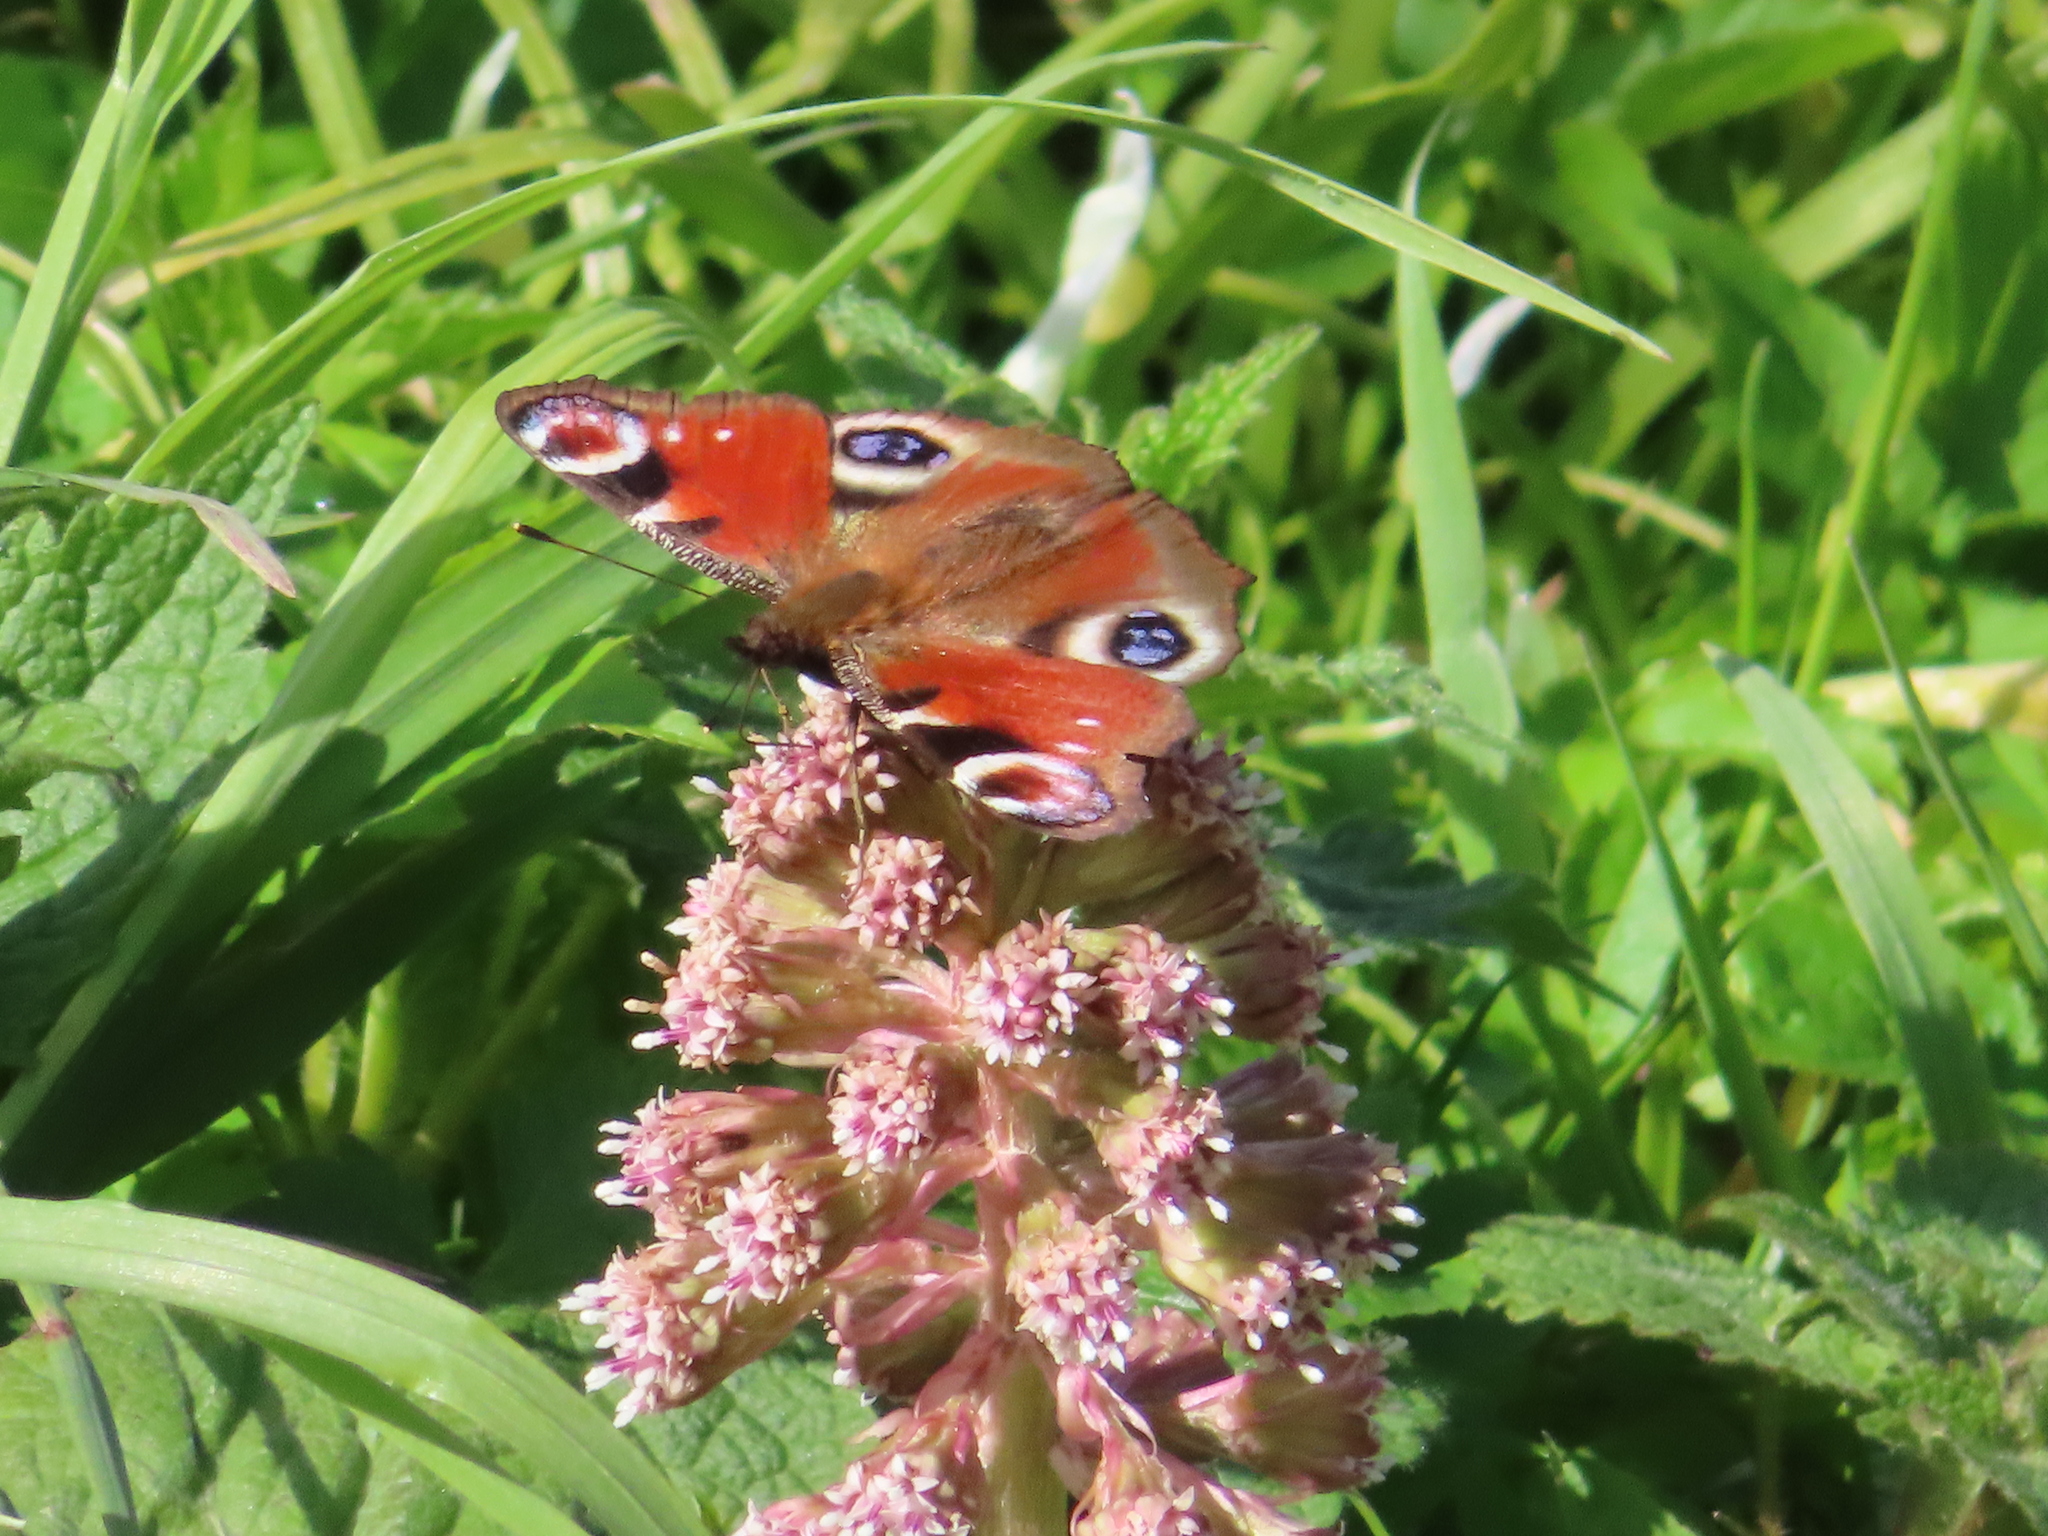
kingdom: Animalia
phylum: Arthropoda
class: Insecta
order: Lepidoptera
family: Nymphalidae
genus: Aglais
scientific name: Aglais io
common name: Peacock
